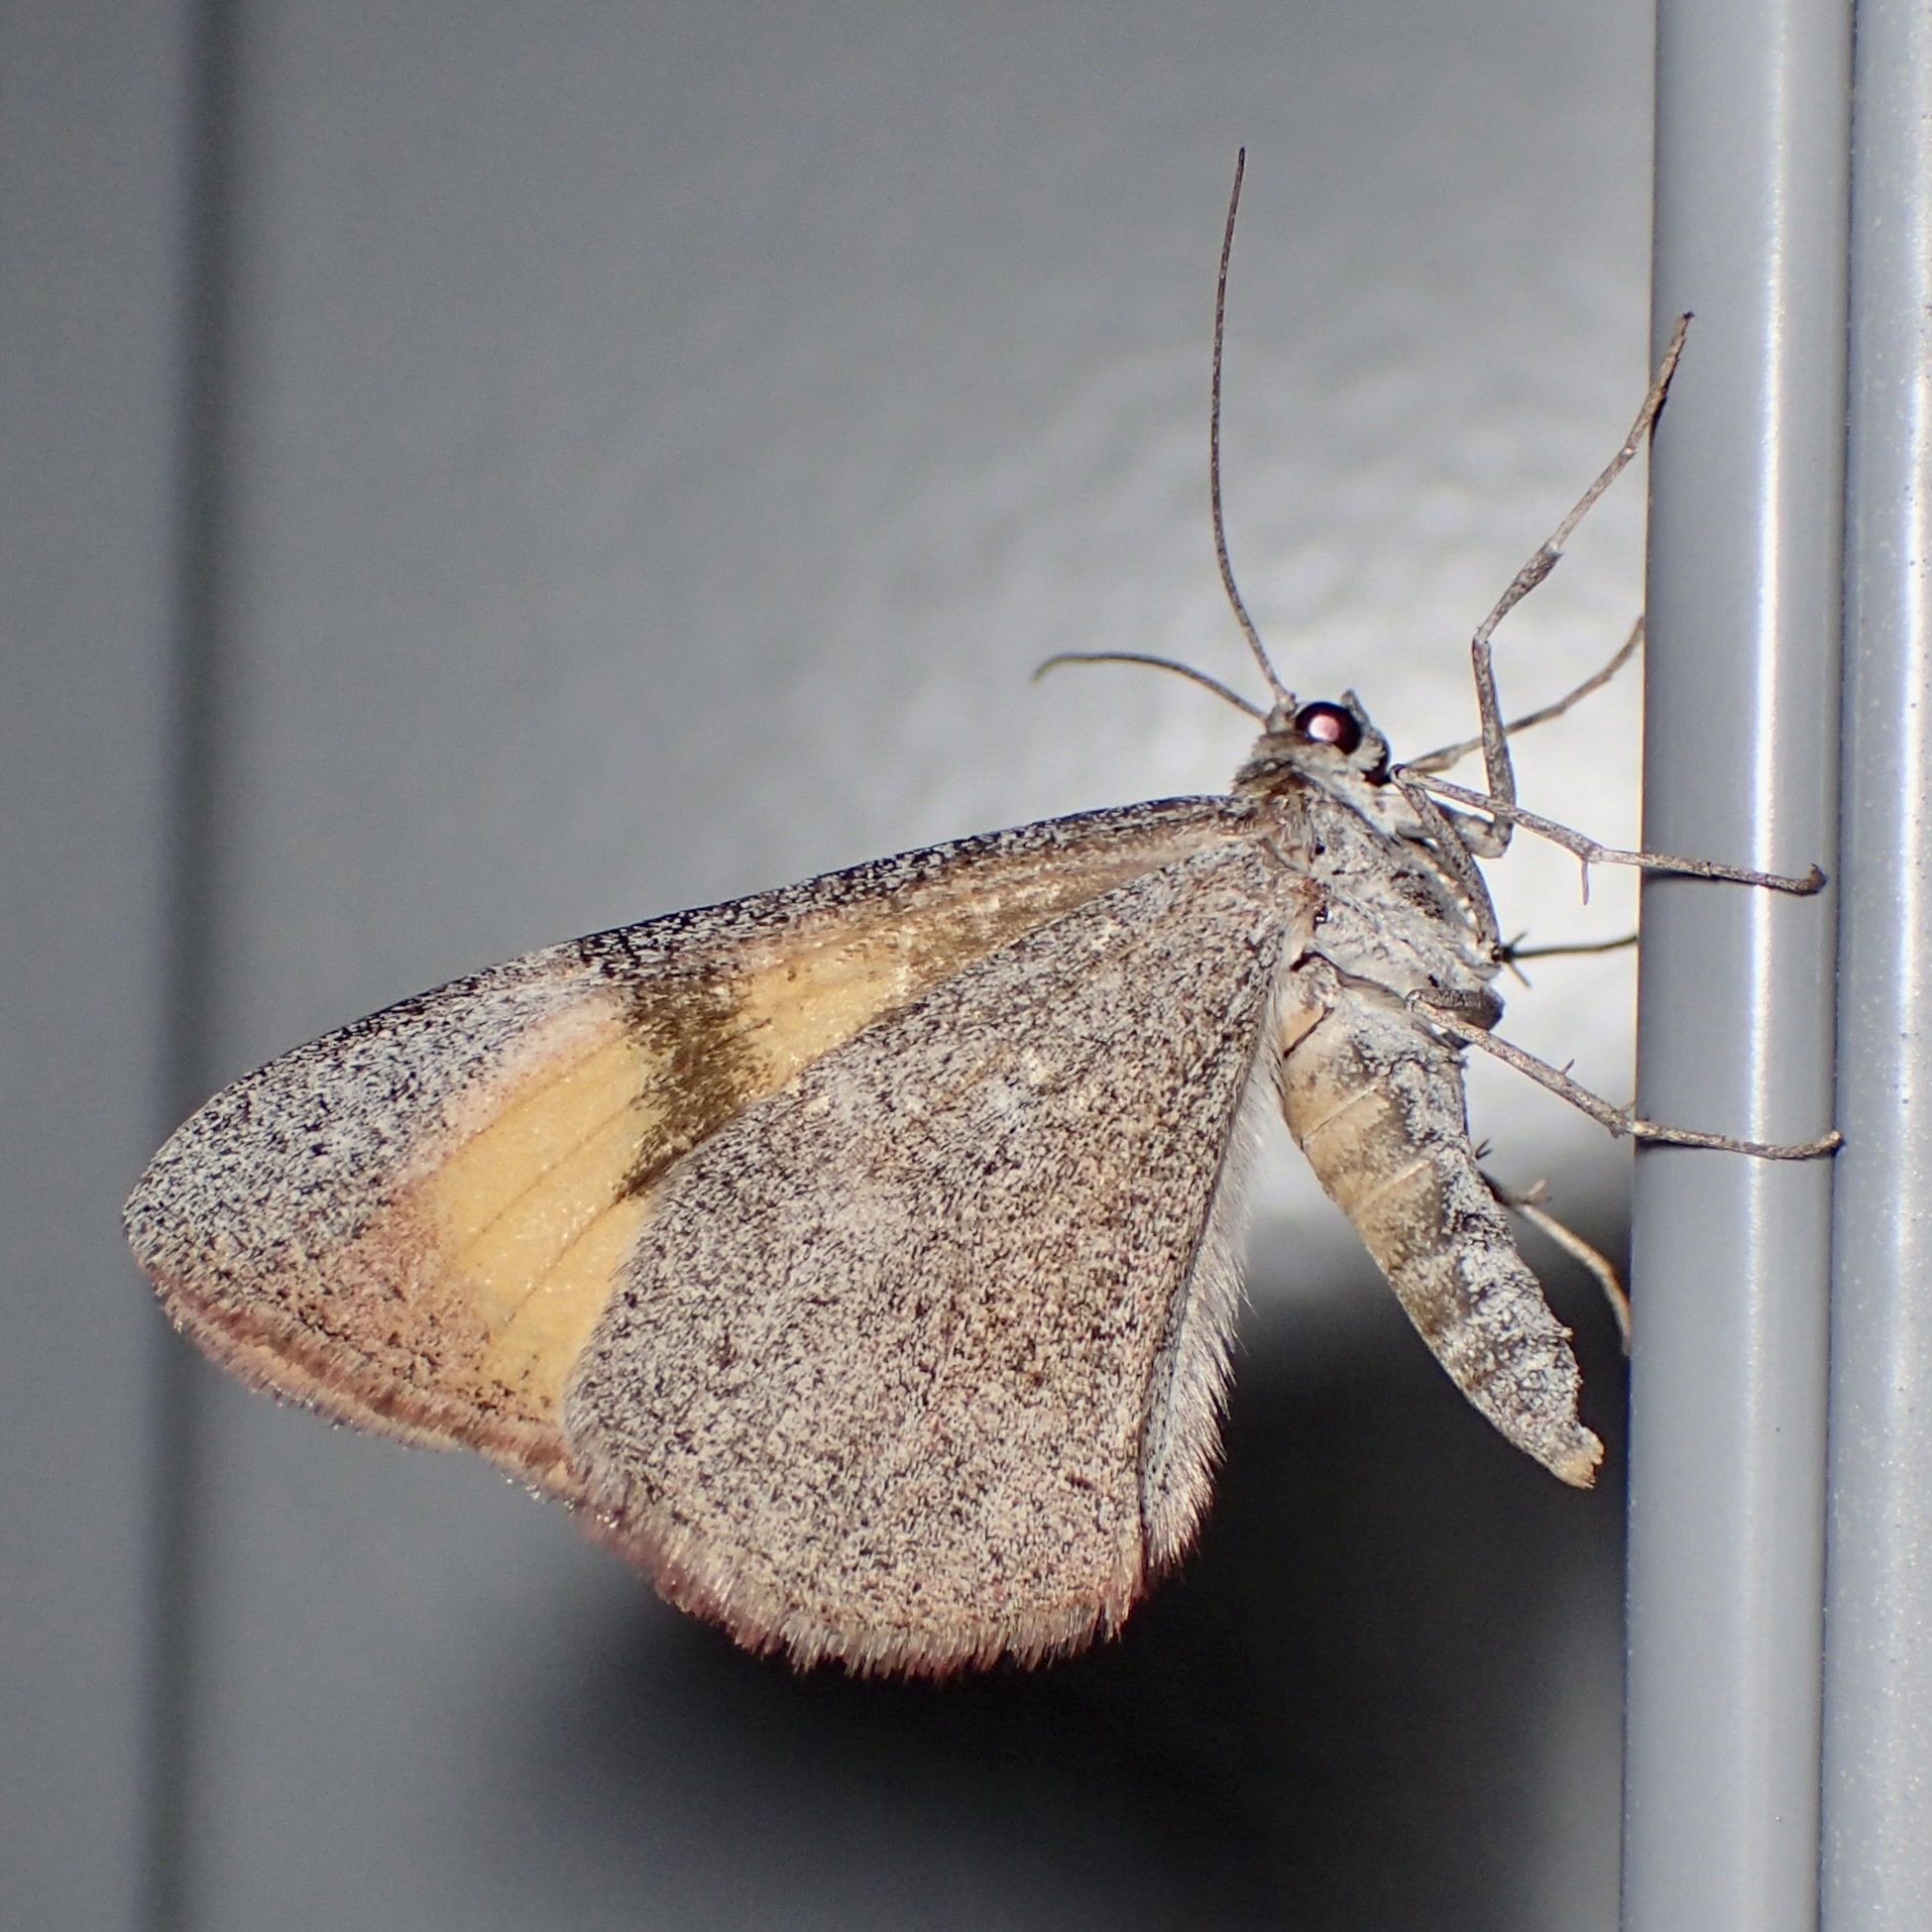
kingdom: Animalia
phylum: Arthropoda
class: Insecta
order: Lepidoptera
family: Geometridae
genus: Stamnodes
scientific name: Stamnodes seiferti
